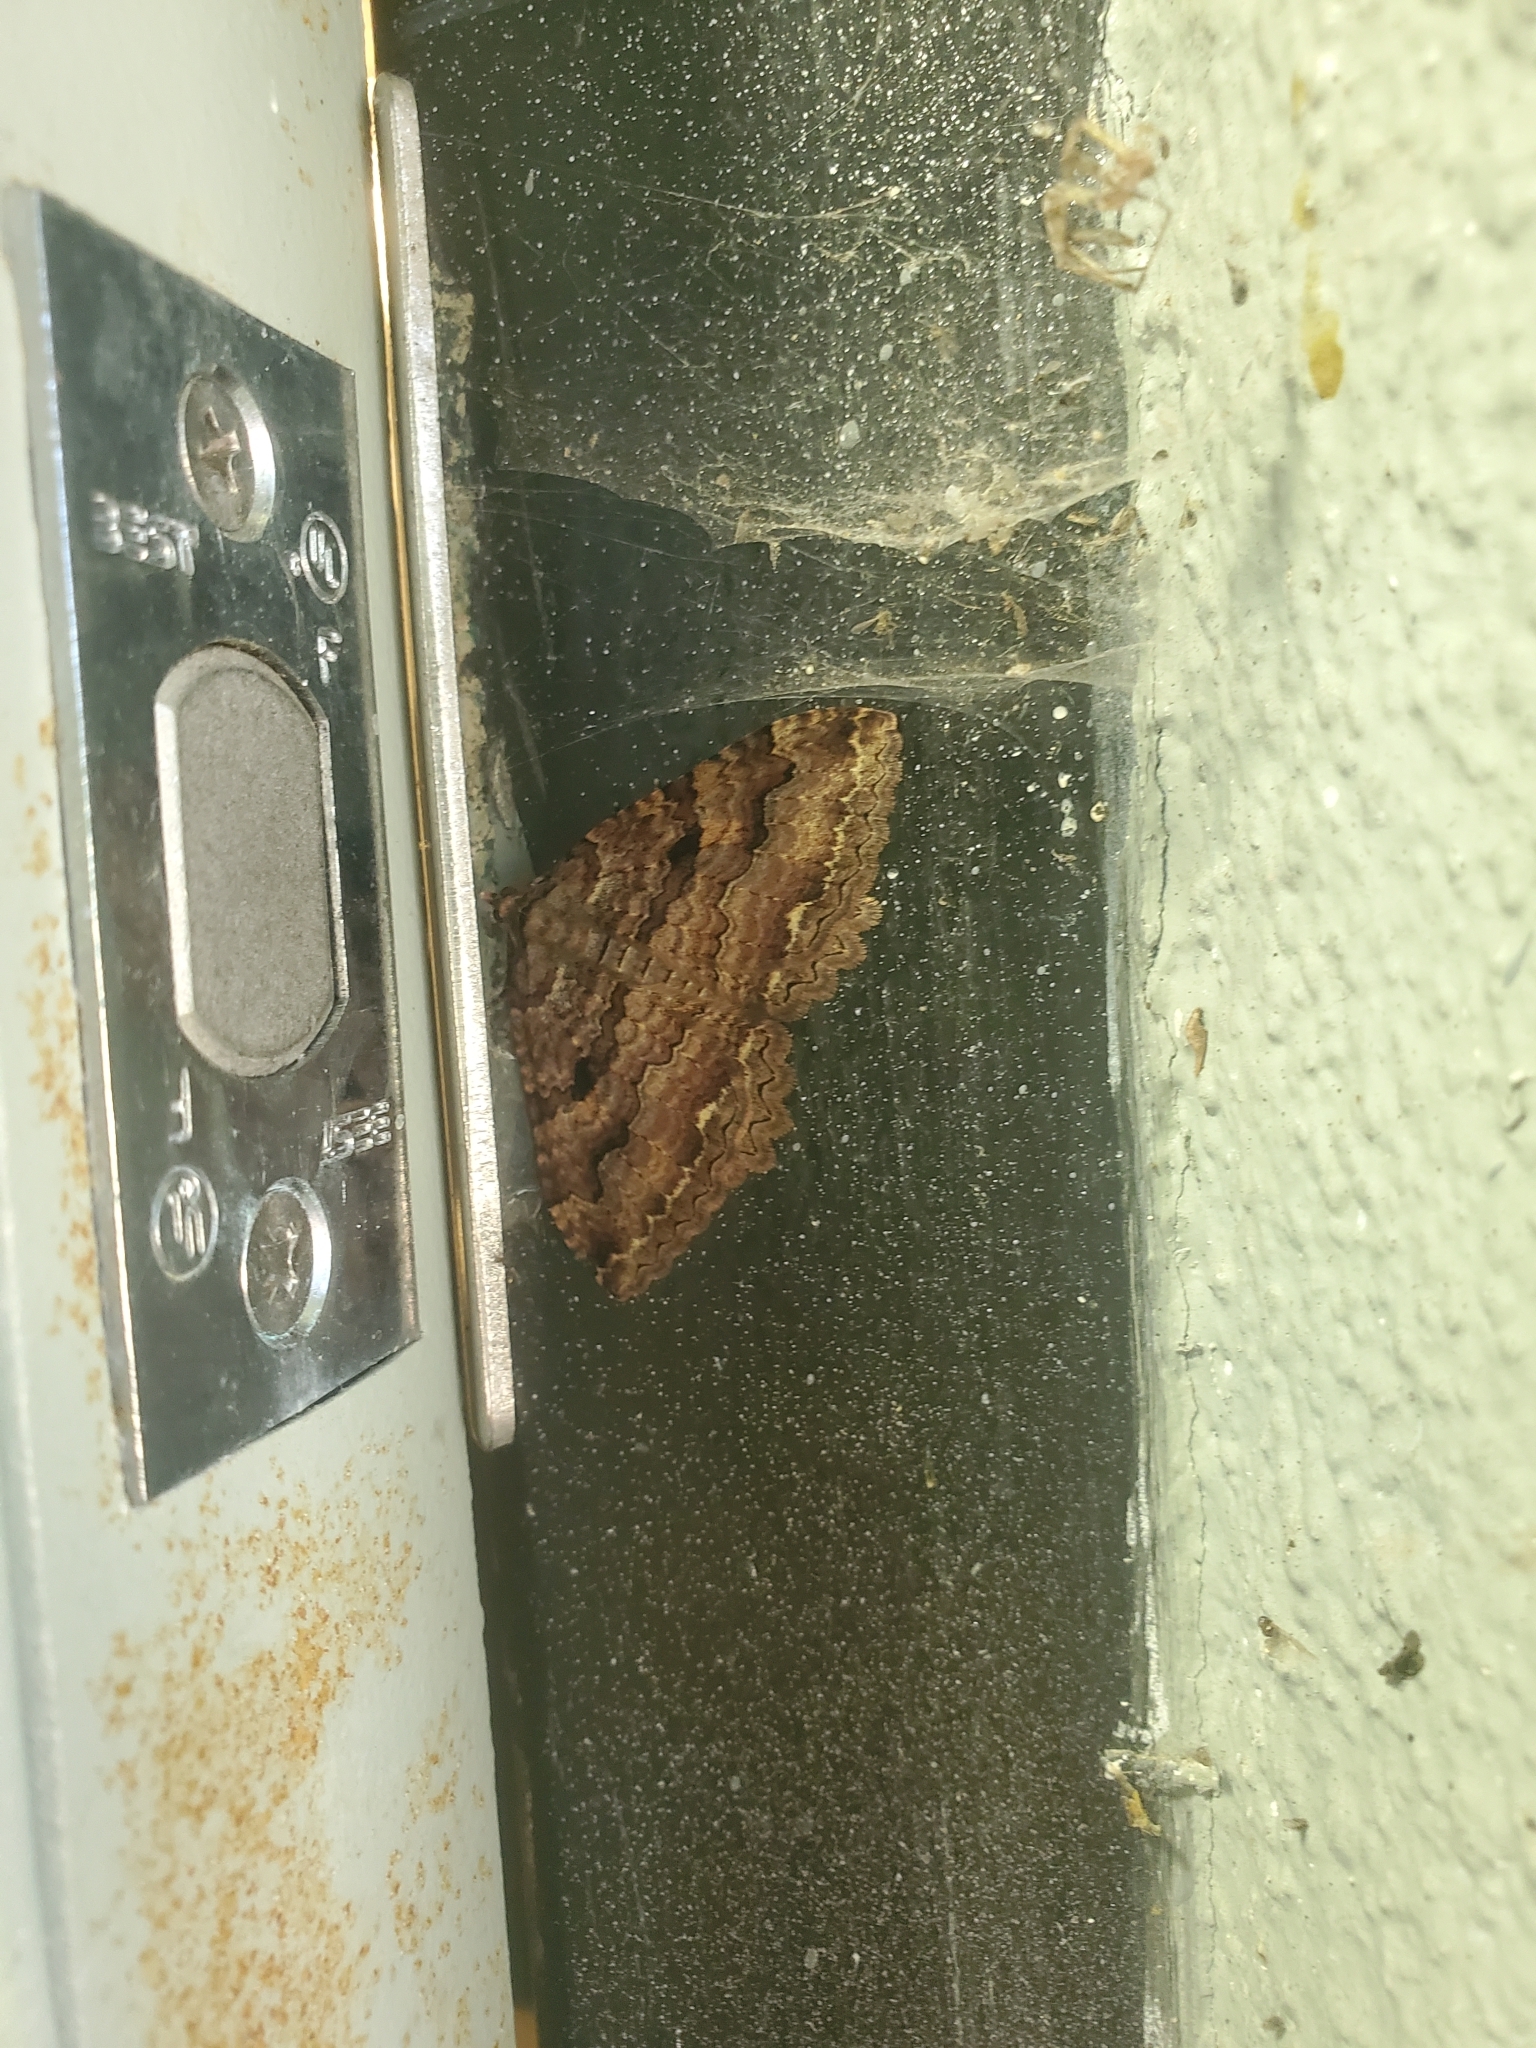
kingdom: Animalia
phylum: Arthropoda
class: Insecta
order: Lepidoptera
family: Geometridae
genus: Triphosa
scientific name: Triphosa haesitata
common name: Tissue moth
